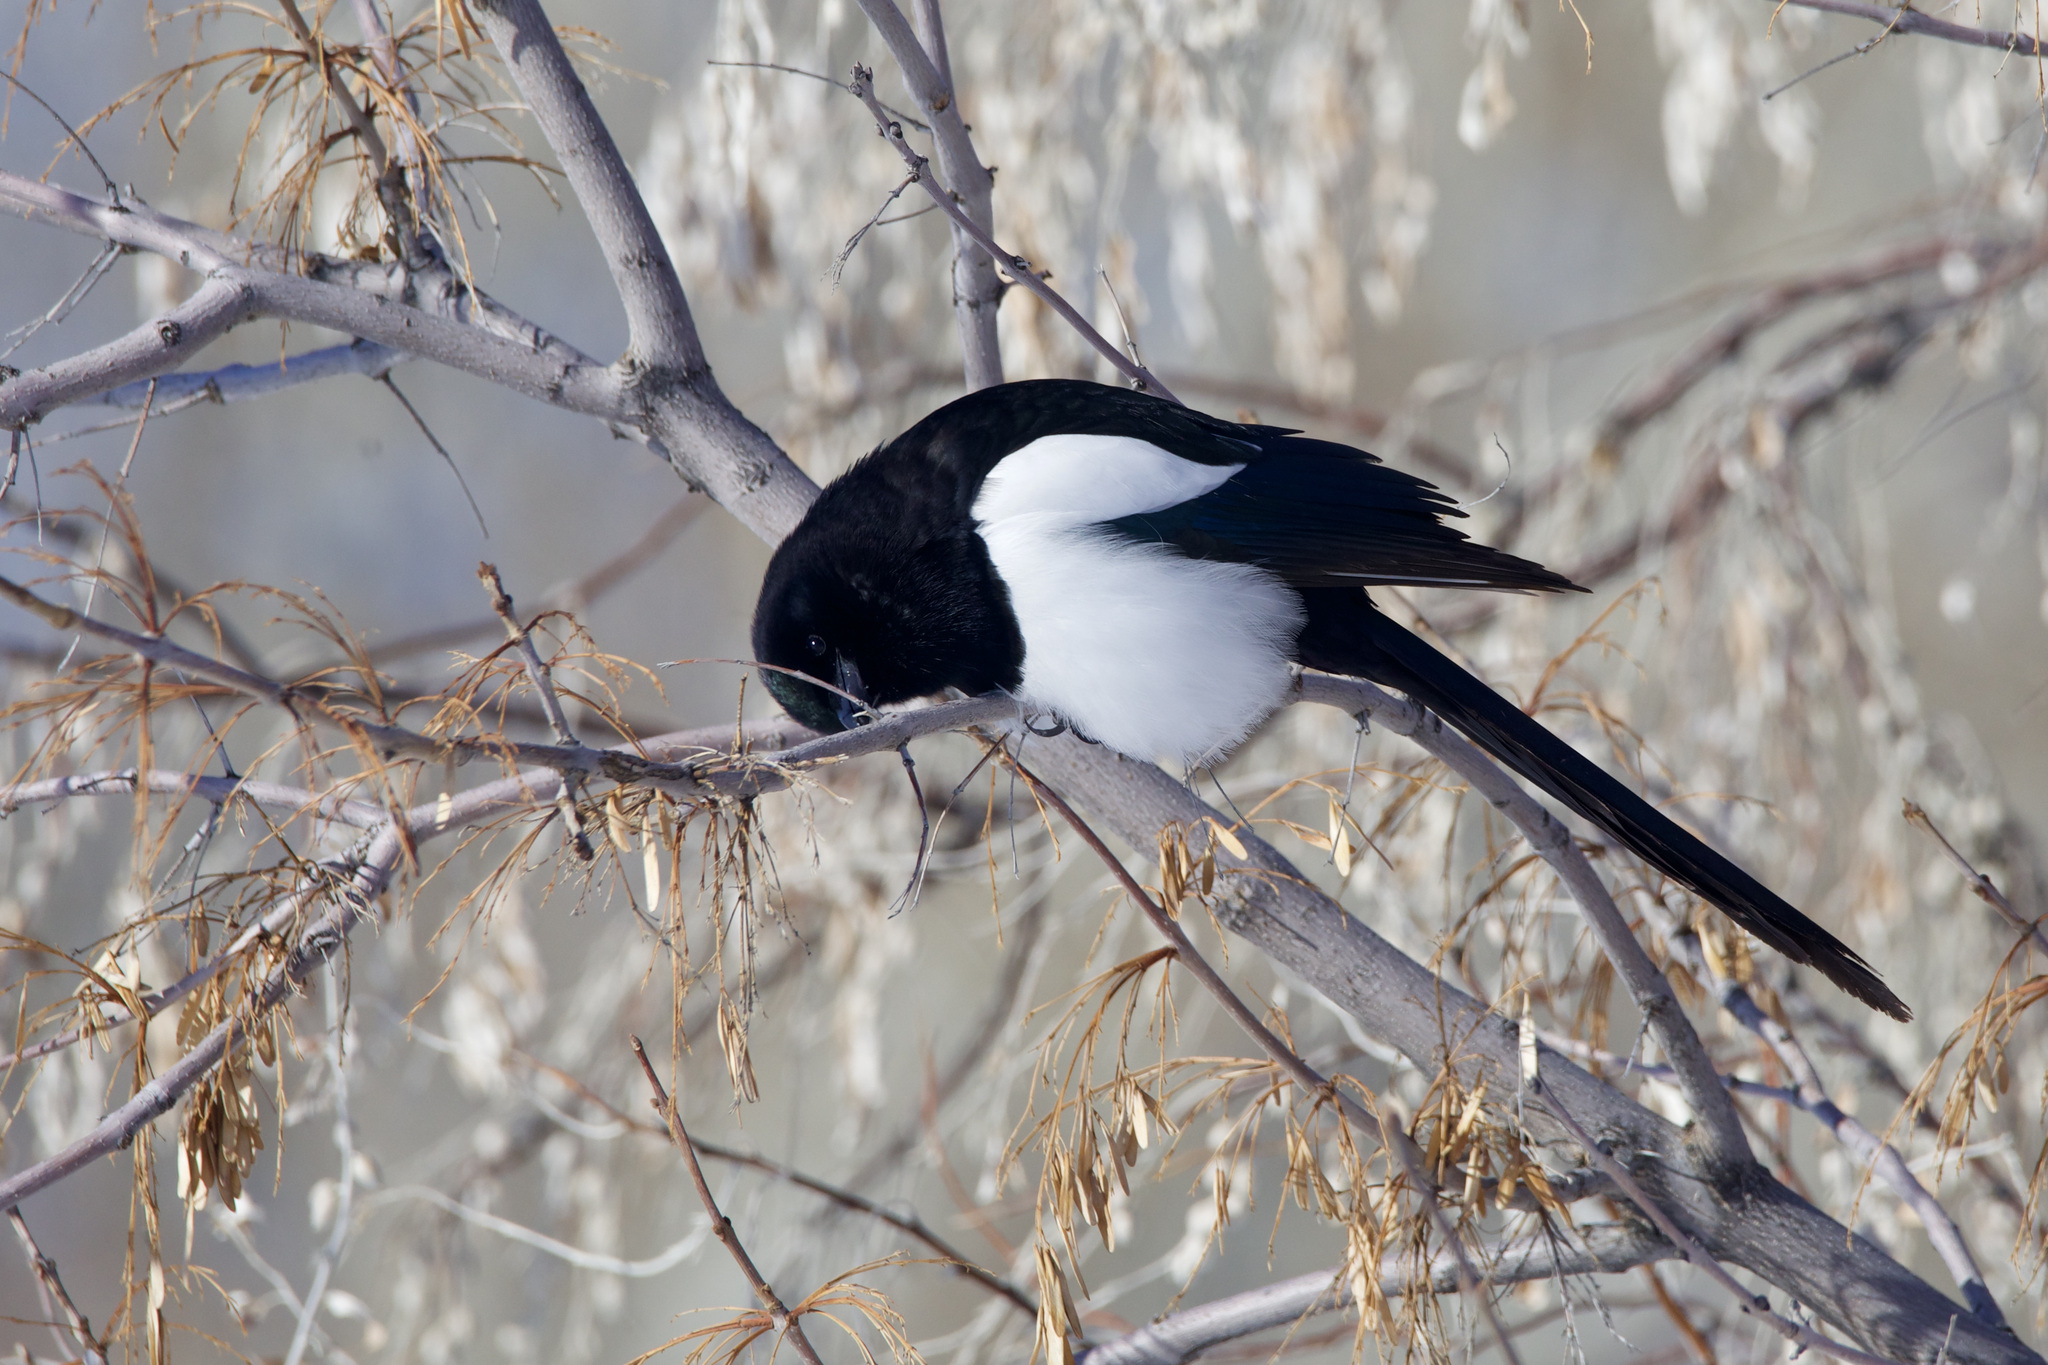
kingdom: Animalia
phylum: Chordata
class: Aves
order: Passeriformes
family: Corvidae
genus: Pica
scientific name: Pica hudsonia
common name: Black-billed magpie
